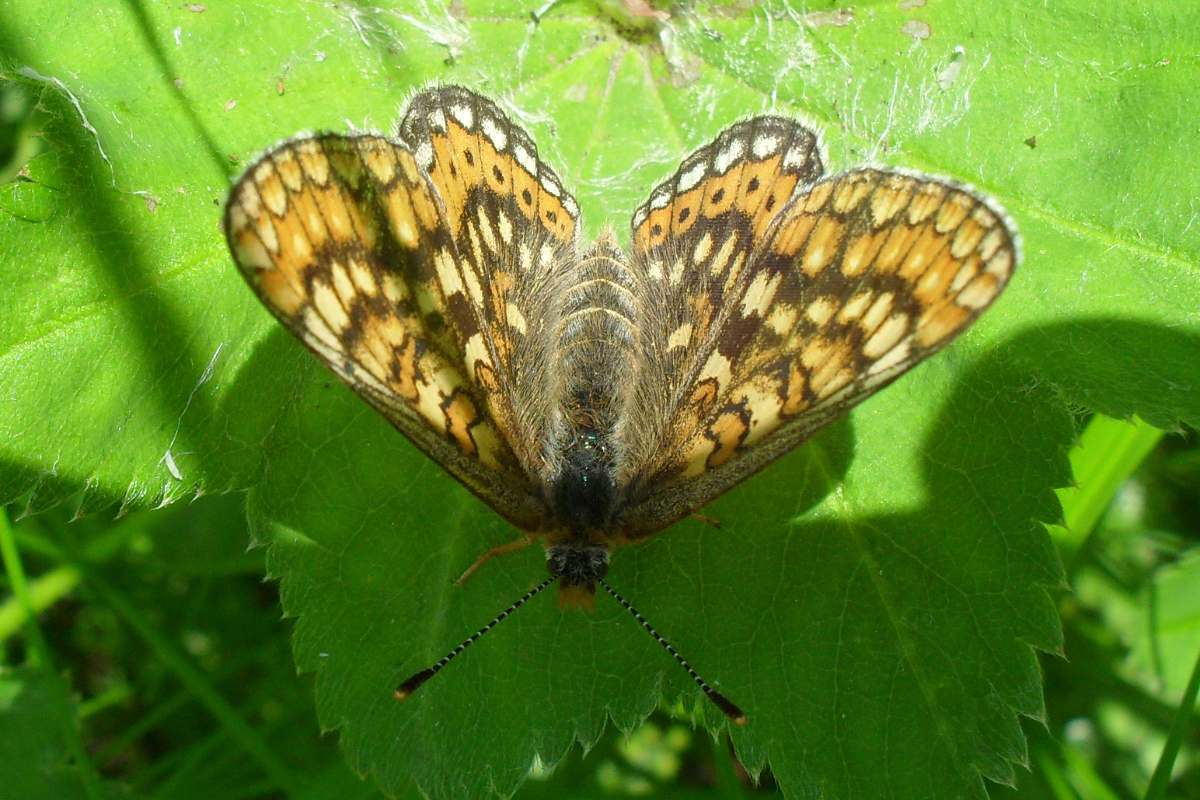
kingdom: Animalia
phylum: Arthropoda
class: Insecta
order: Lepidoptera
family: Nymphalidae
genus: Euphydryas
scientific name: Euphydryas aurinia
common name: Marsh fritillary
